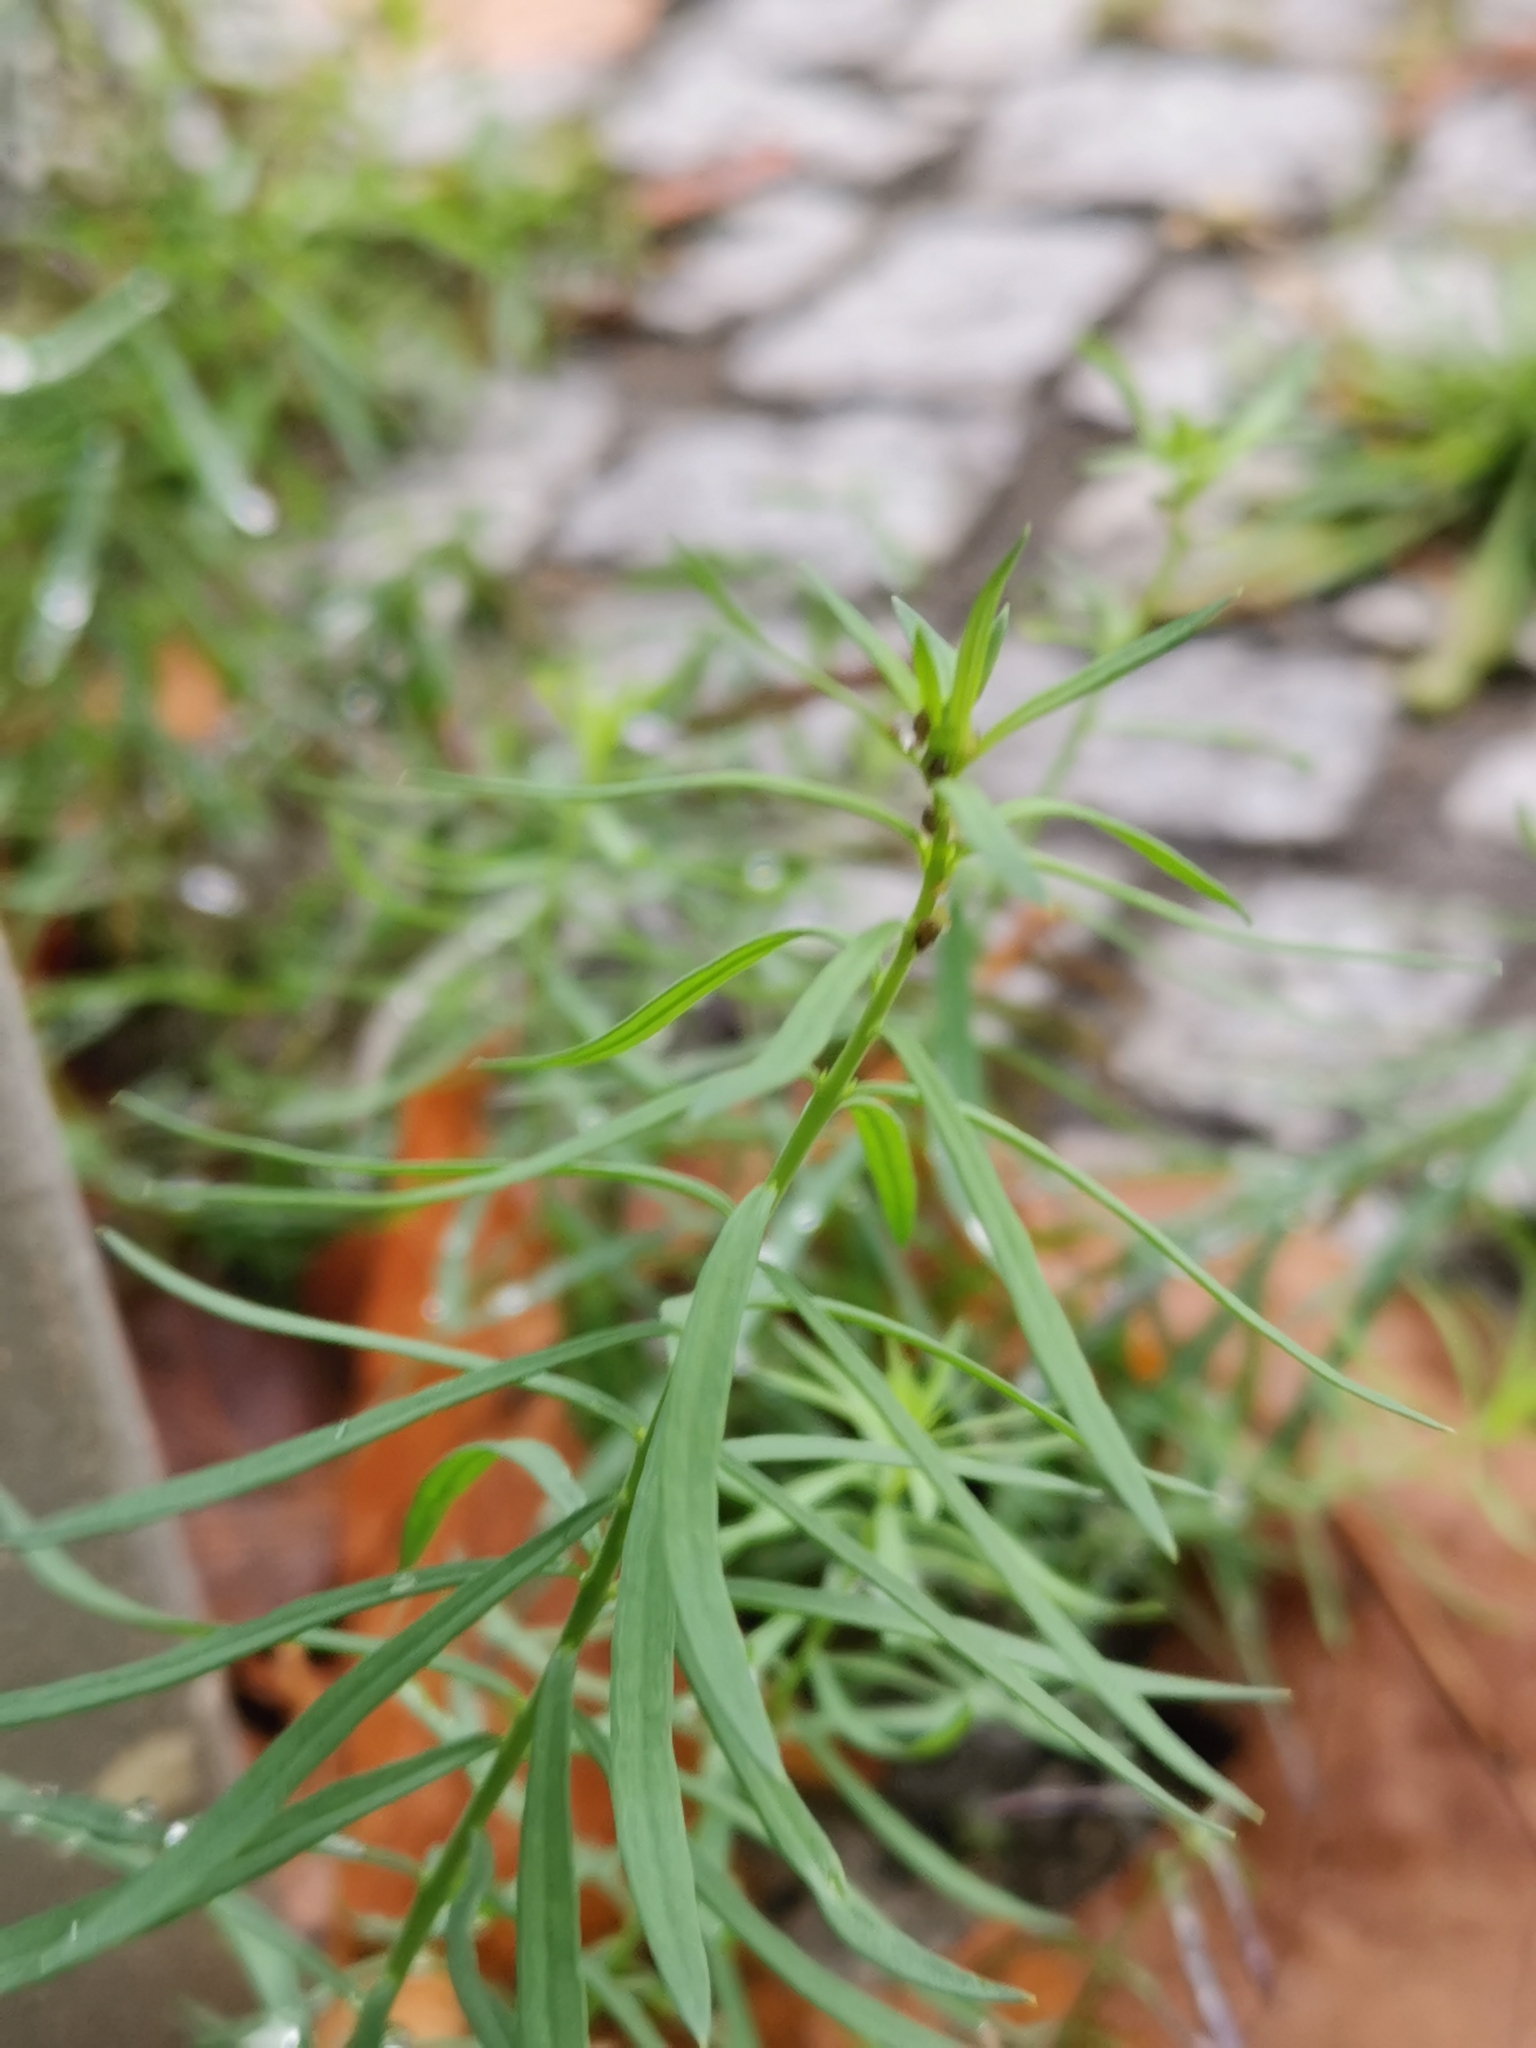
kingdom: Plantae
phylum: Tracheophyta
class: Magnoliopsida
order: Lamiales
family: Plantaginaceae
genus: Linaria
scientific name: Linaria vulgaris
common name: Butter and eggs
